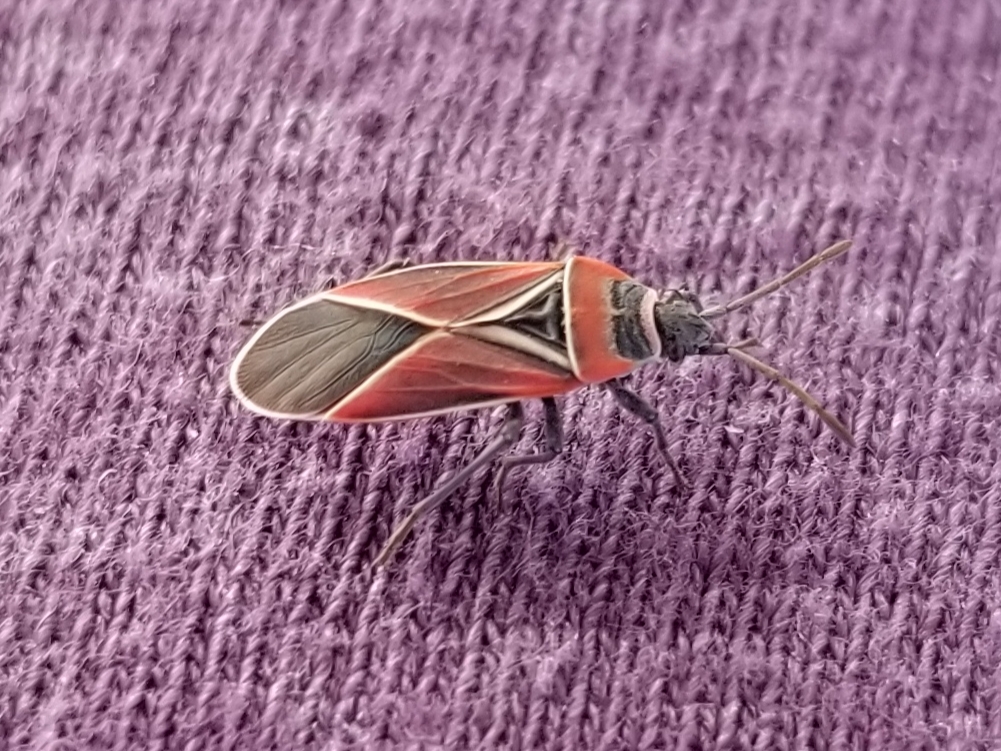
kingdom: Animalia
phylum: Arthropoda
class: Insecta
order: Hemiptera
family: Lygaeidae
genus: Neacoryphus
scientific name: Neacoryphus bicrucis
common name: Lygaeid bug
